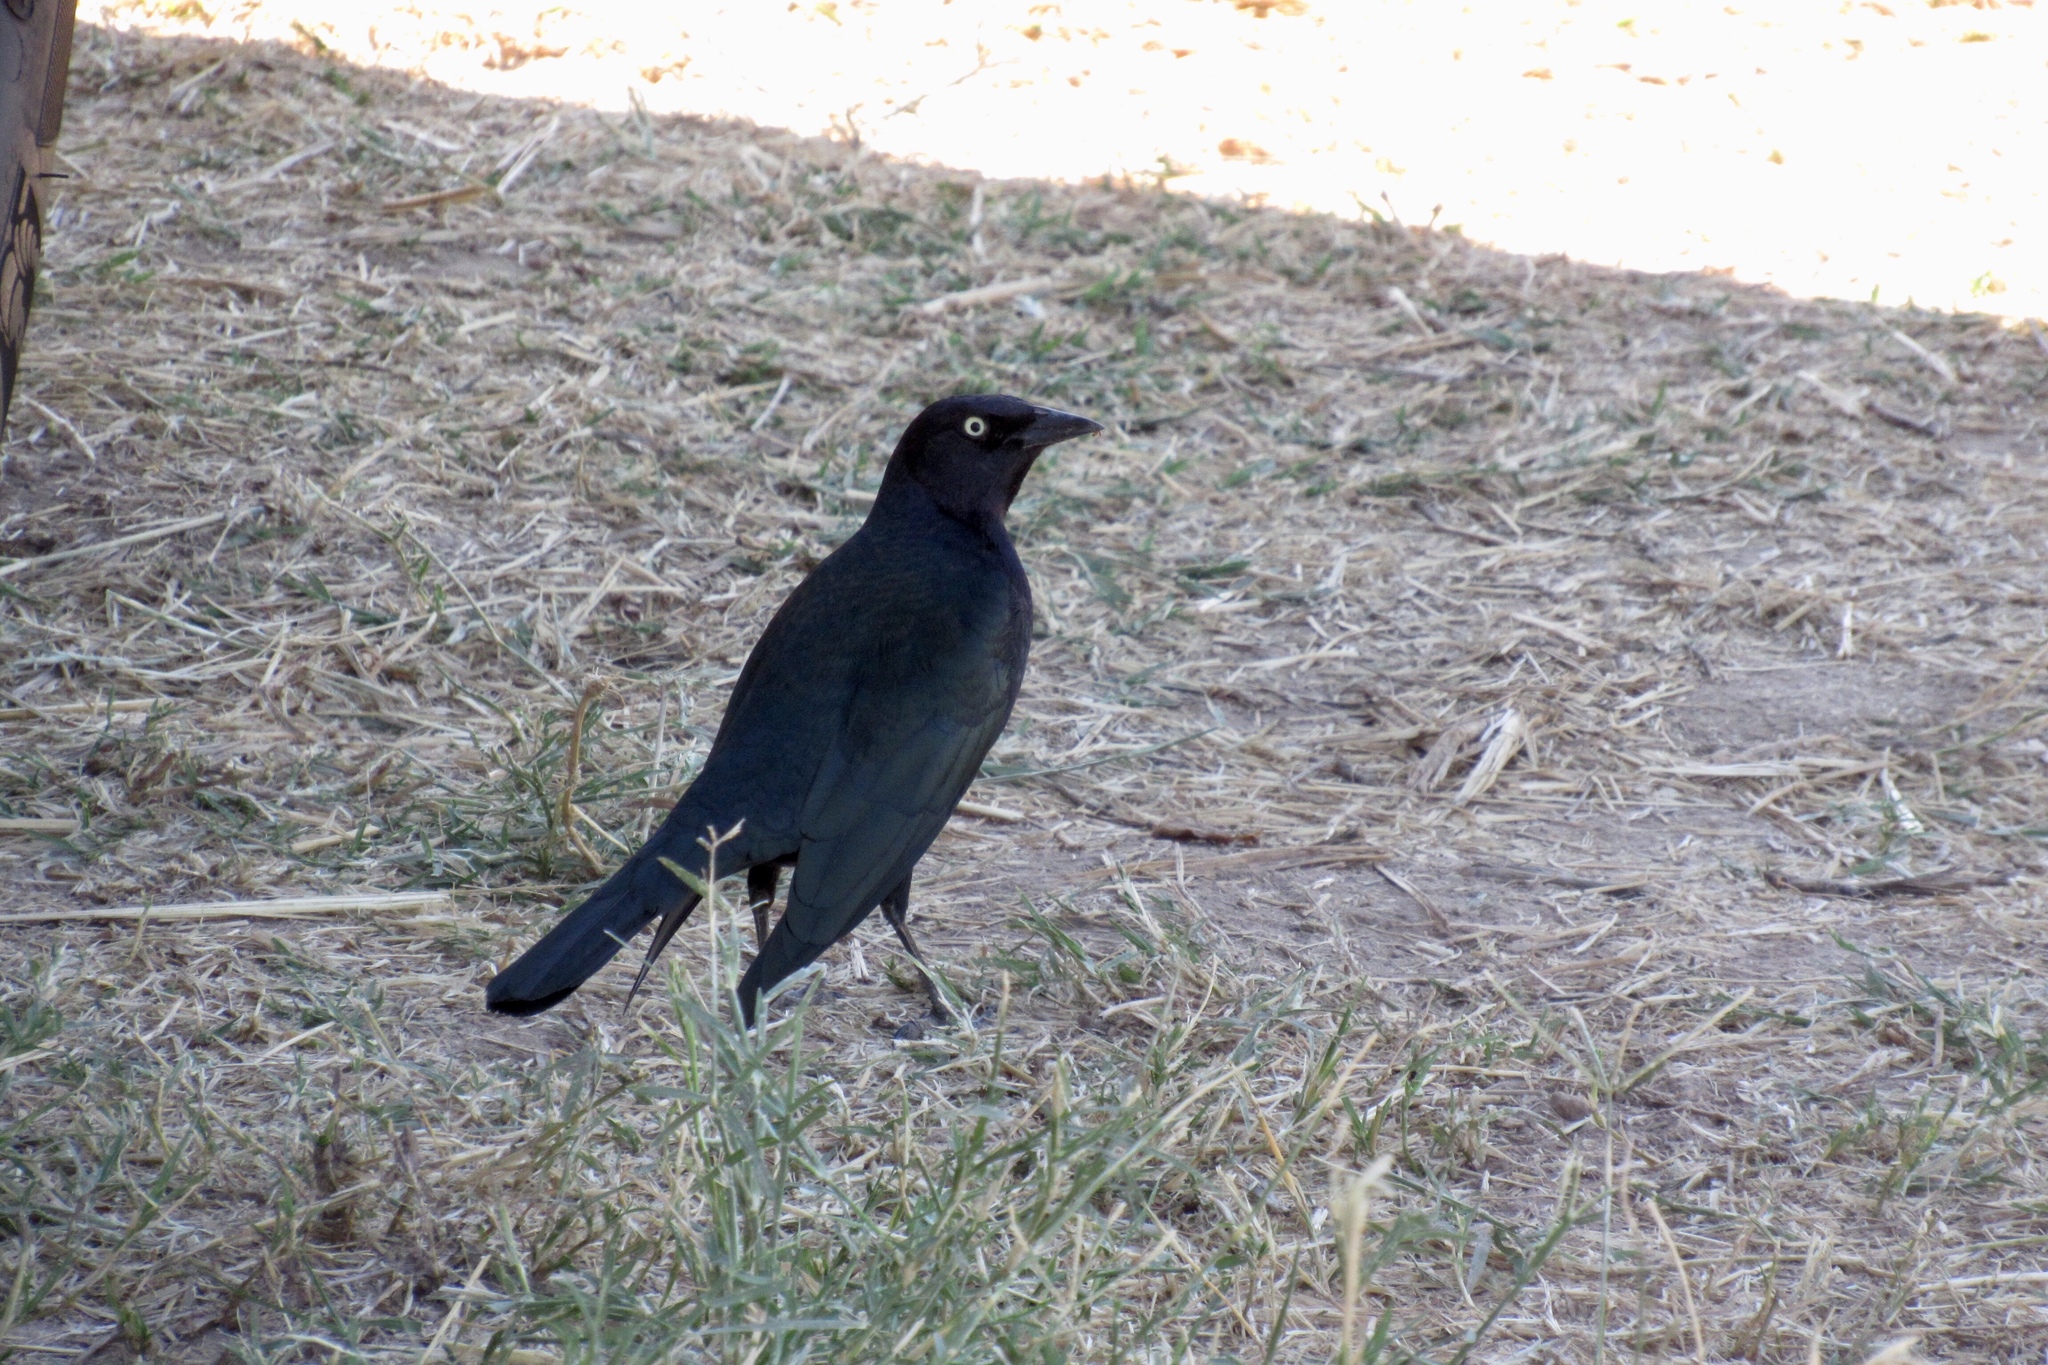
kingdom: Animalia
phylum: Chordata
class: Aves
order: Passeriformes
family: Icteridae
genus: Euphagus
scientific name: Euphagus cyanocephalus
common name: Brewer's blackbird
